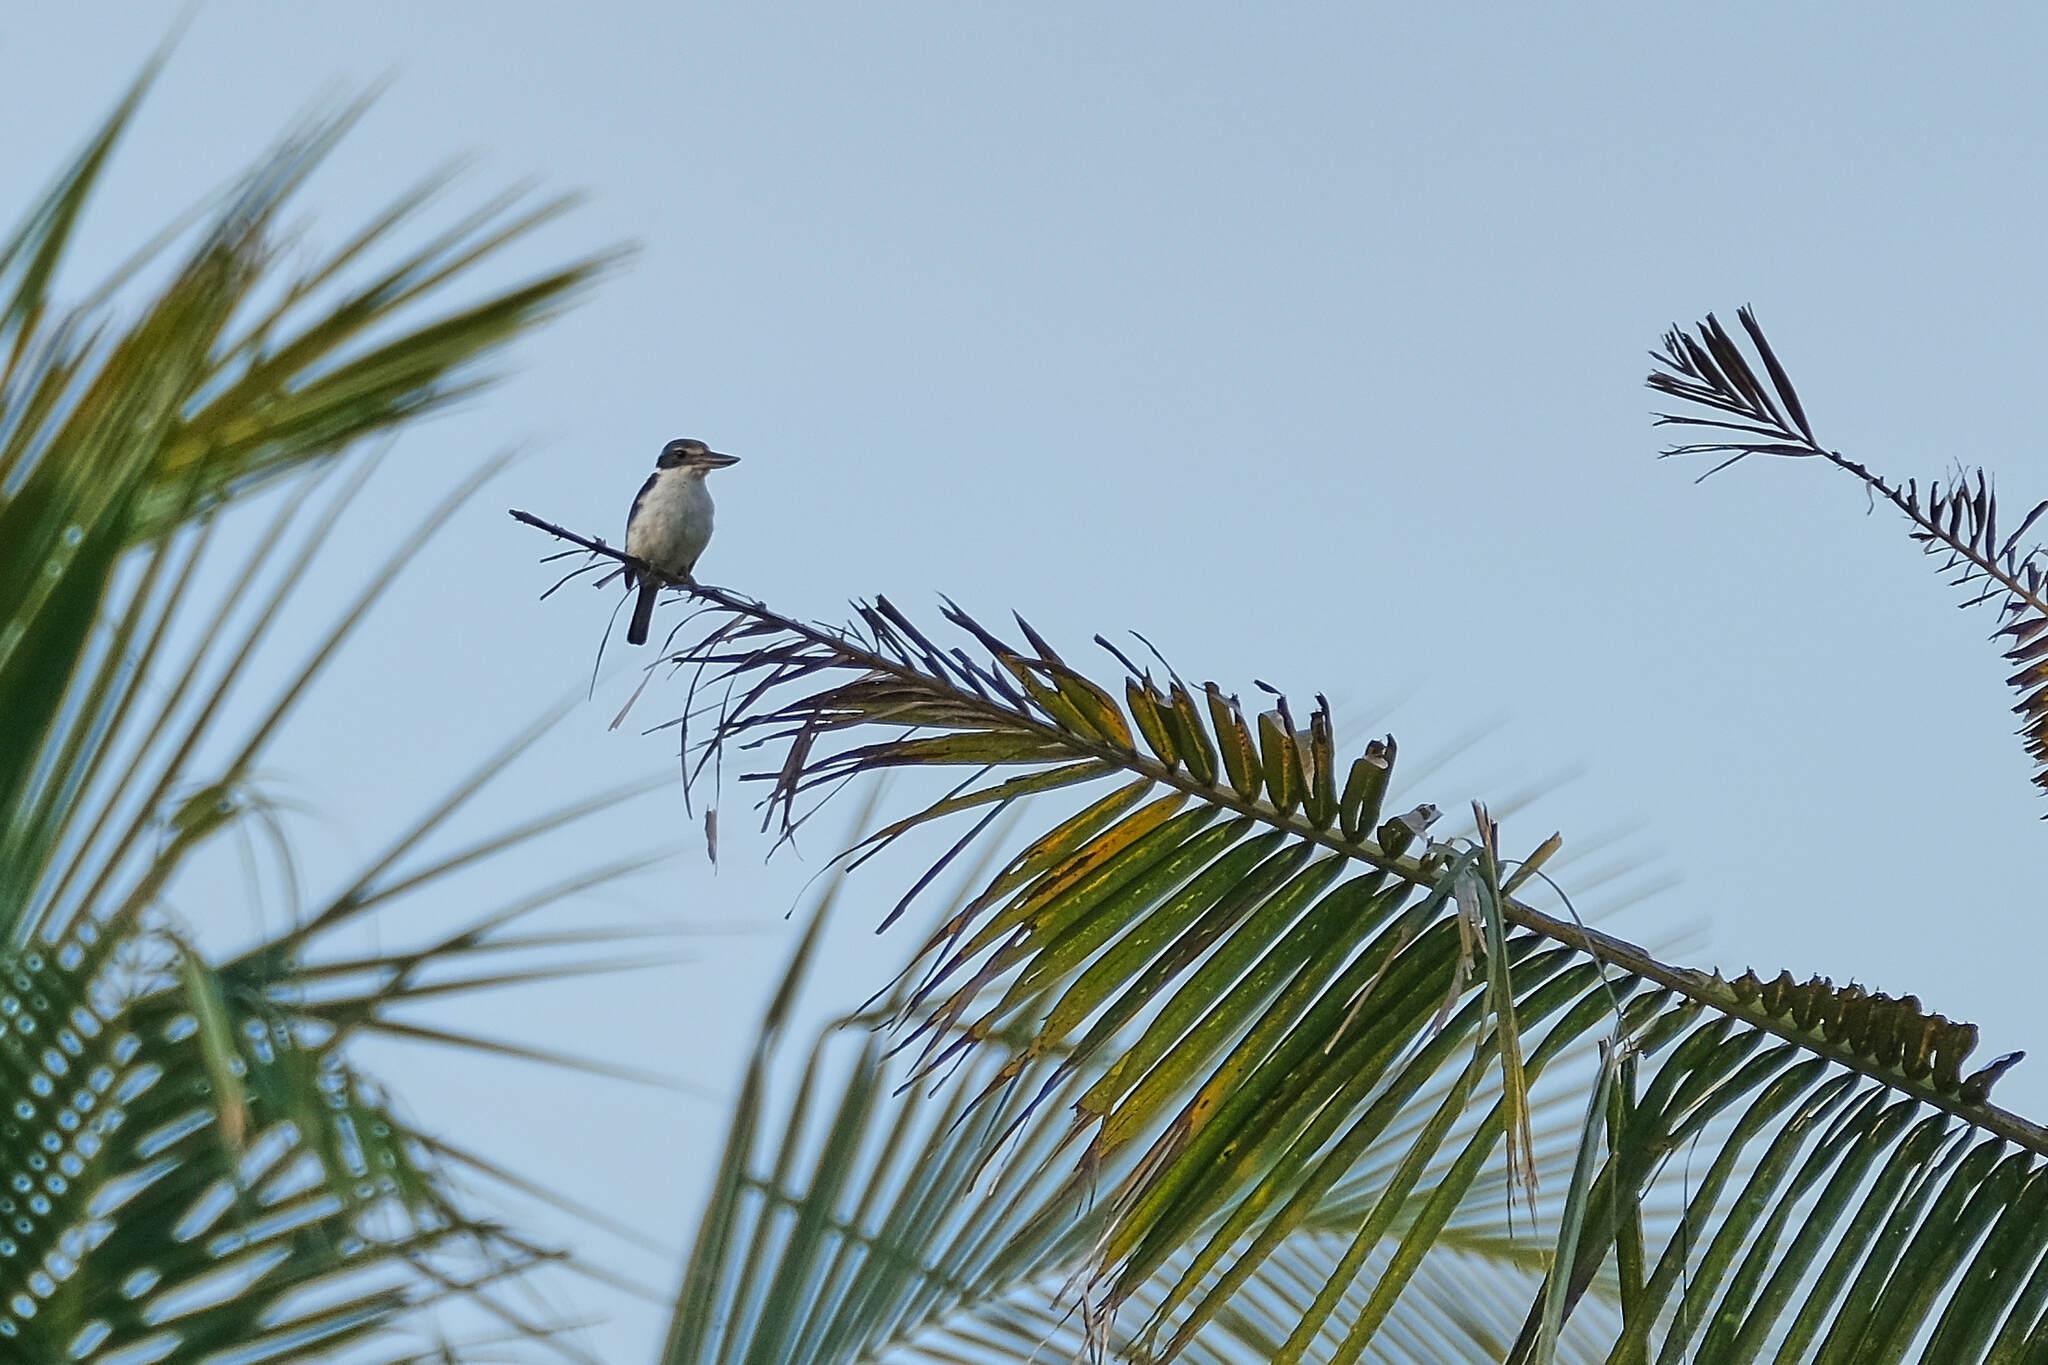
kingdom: Animalia
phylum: Chordata
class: Aves
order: Coraciiformes
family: Alcedinidae
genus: Todiramphus
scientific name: Todiramphus chloris
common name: Collared kingfisher
